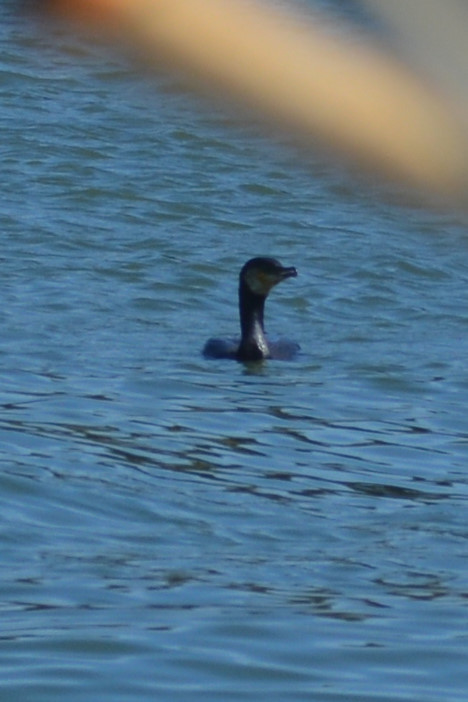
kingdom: Animalia
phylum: Chordata
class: Aves
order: Suliformes
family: Phalacrocoracidae
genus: Phalacrocorax
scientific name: Phalacrocorax carbo
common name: Great cormorant
